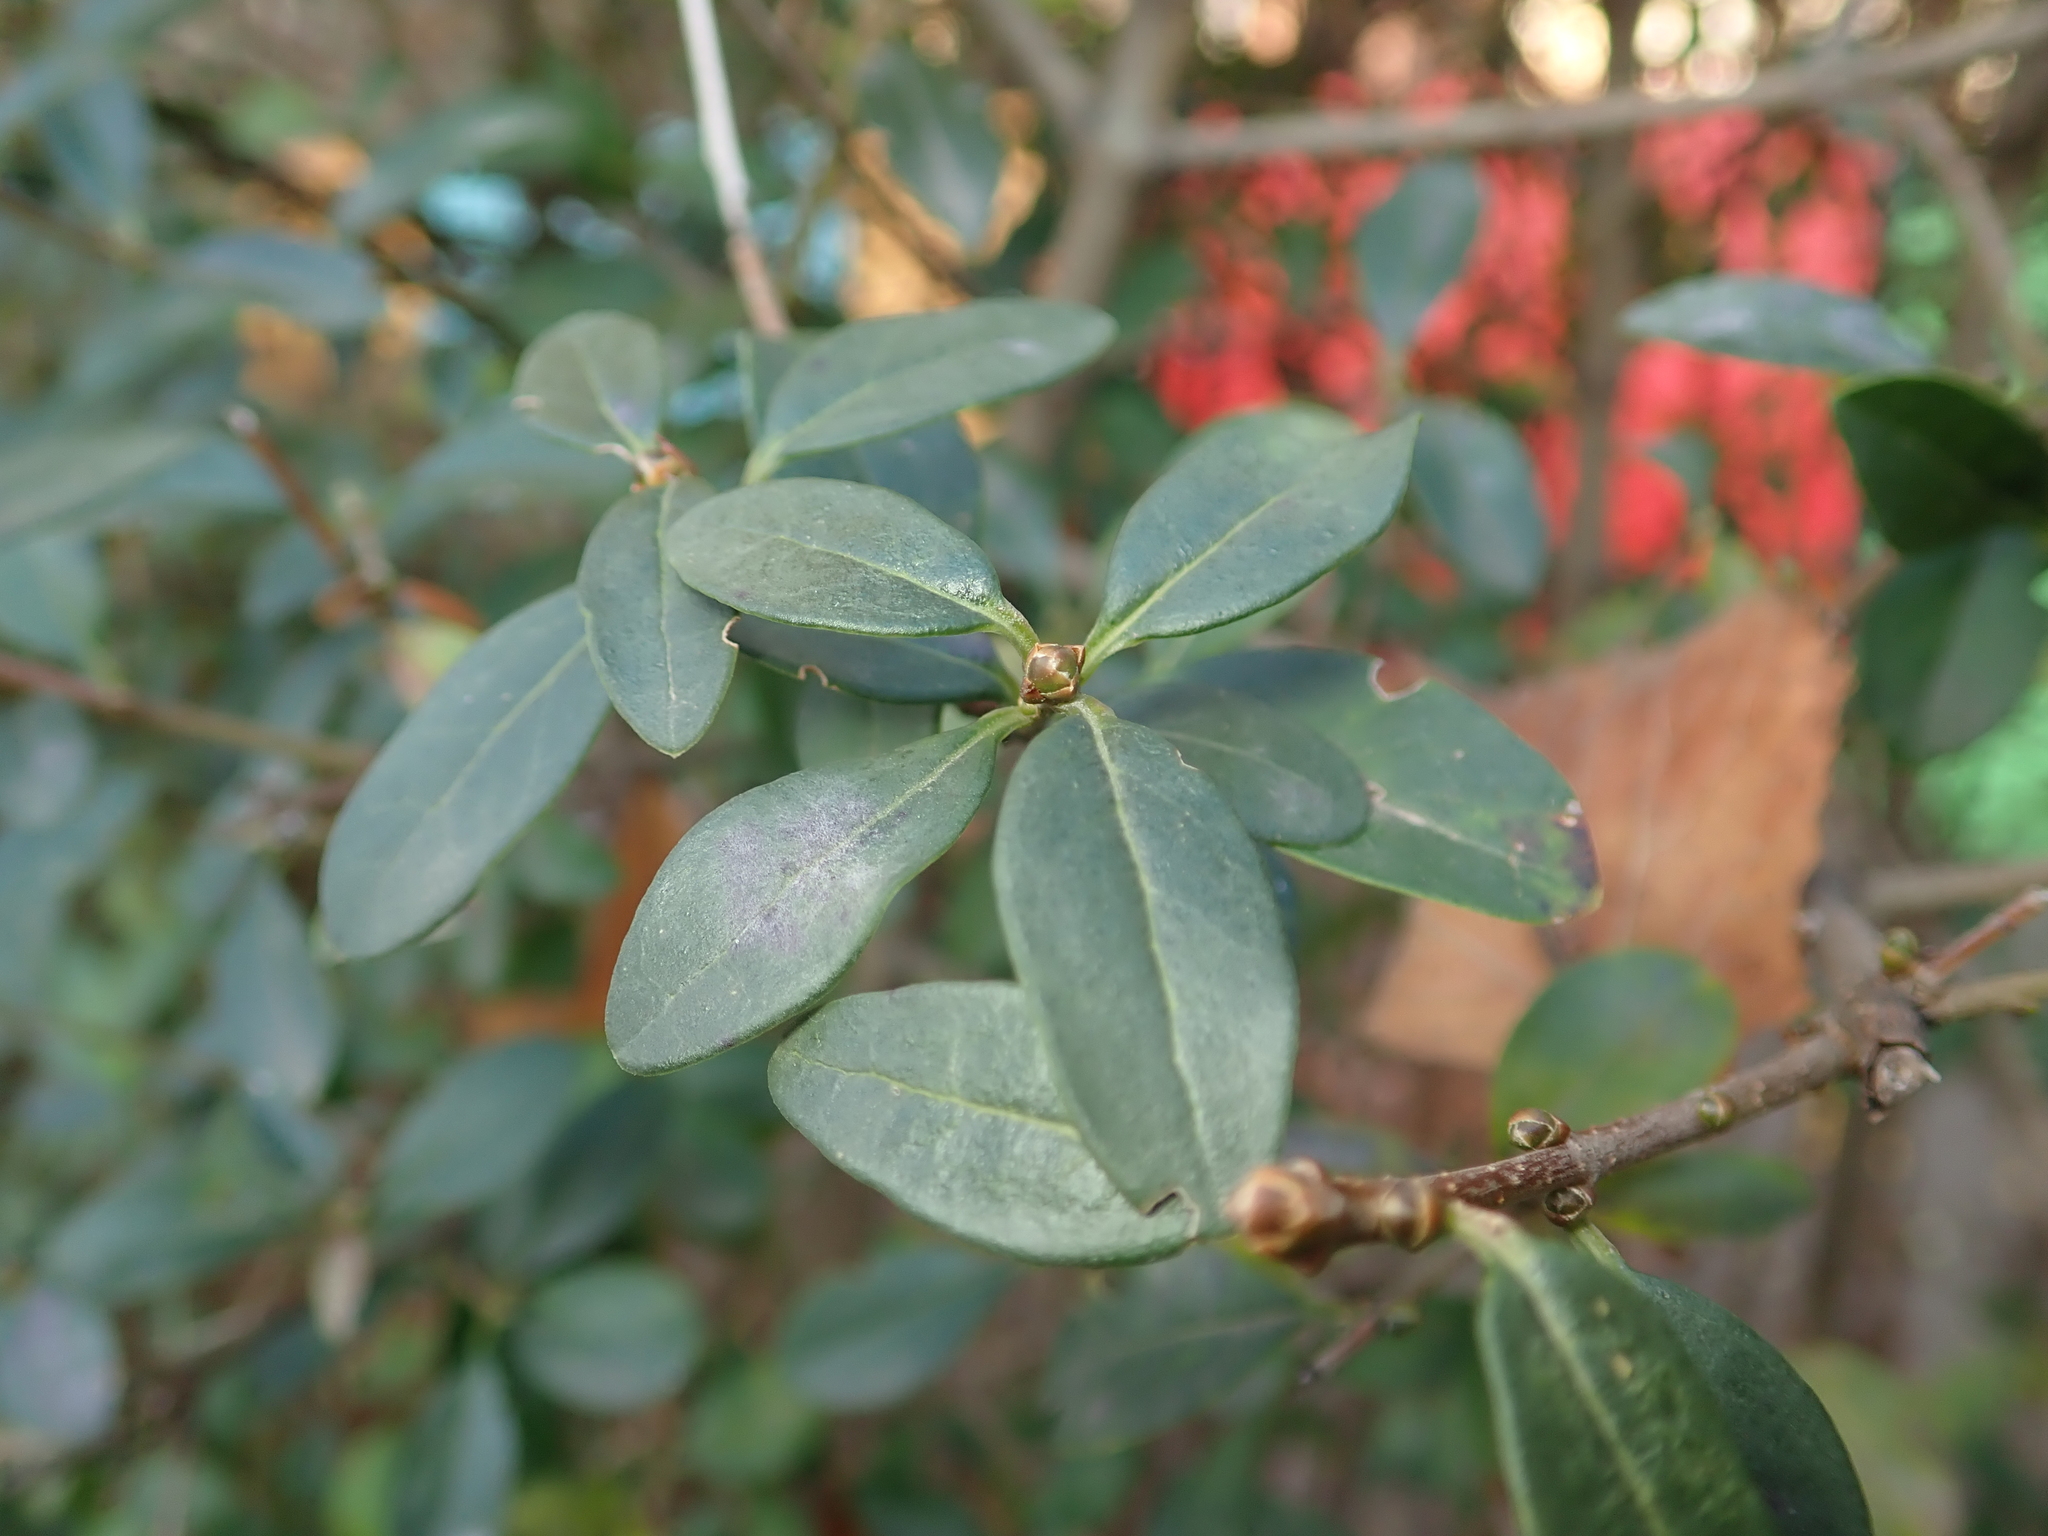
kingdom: Plantae
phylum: Tracheophyta
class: Magnoliopsida
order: Lamiales
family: Oleaceae
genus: Ligustrum
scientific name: Ligustrum vulgare
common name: Wild privet
